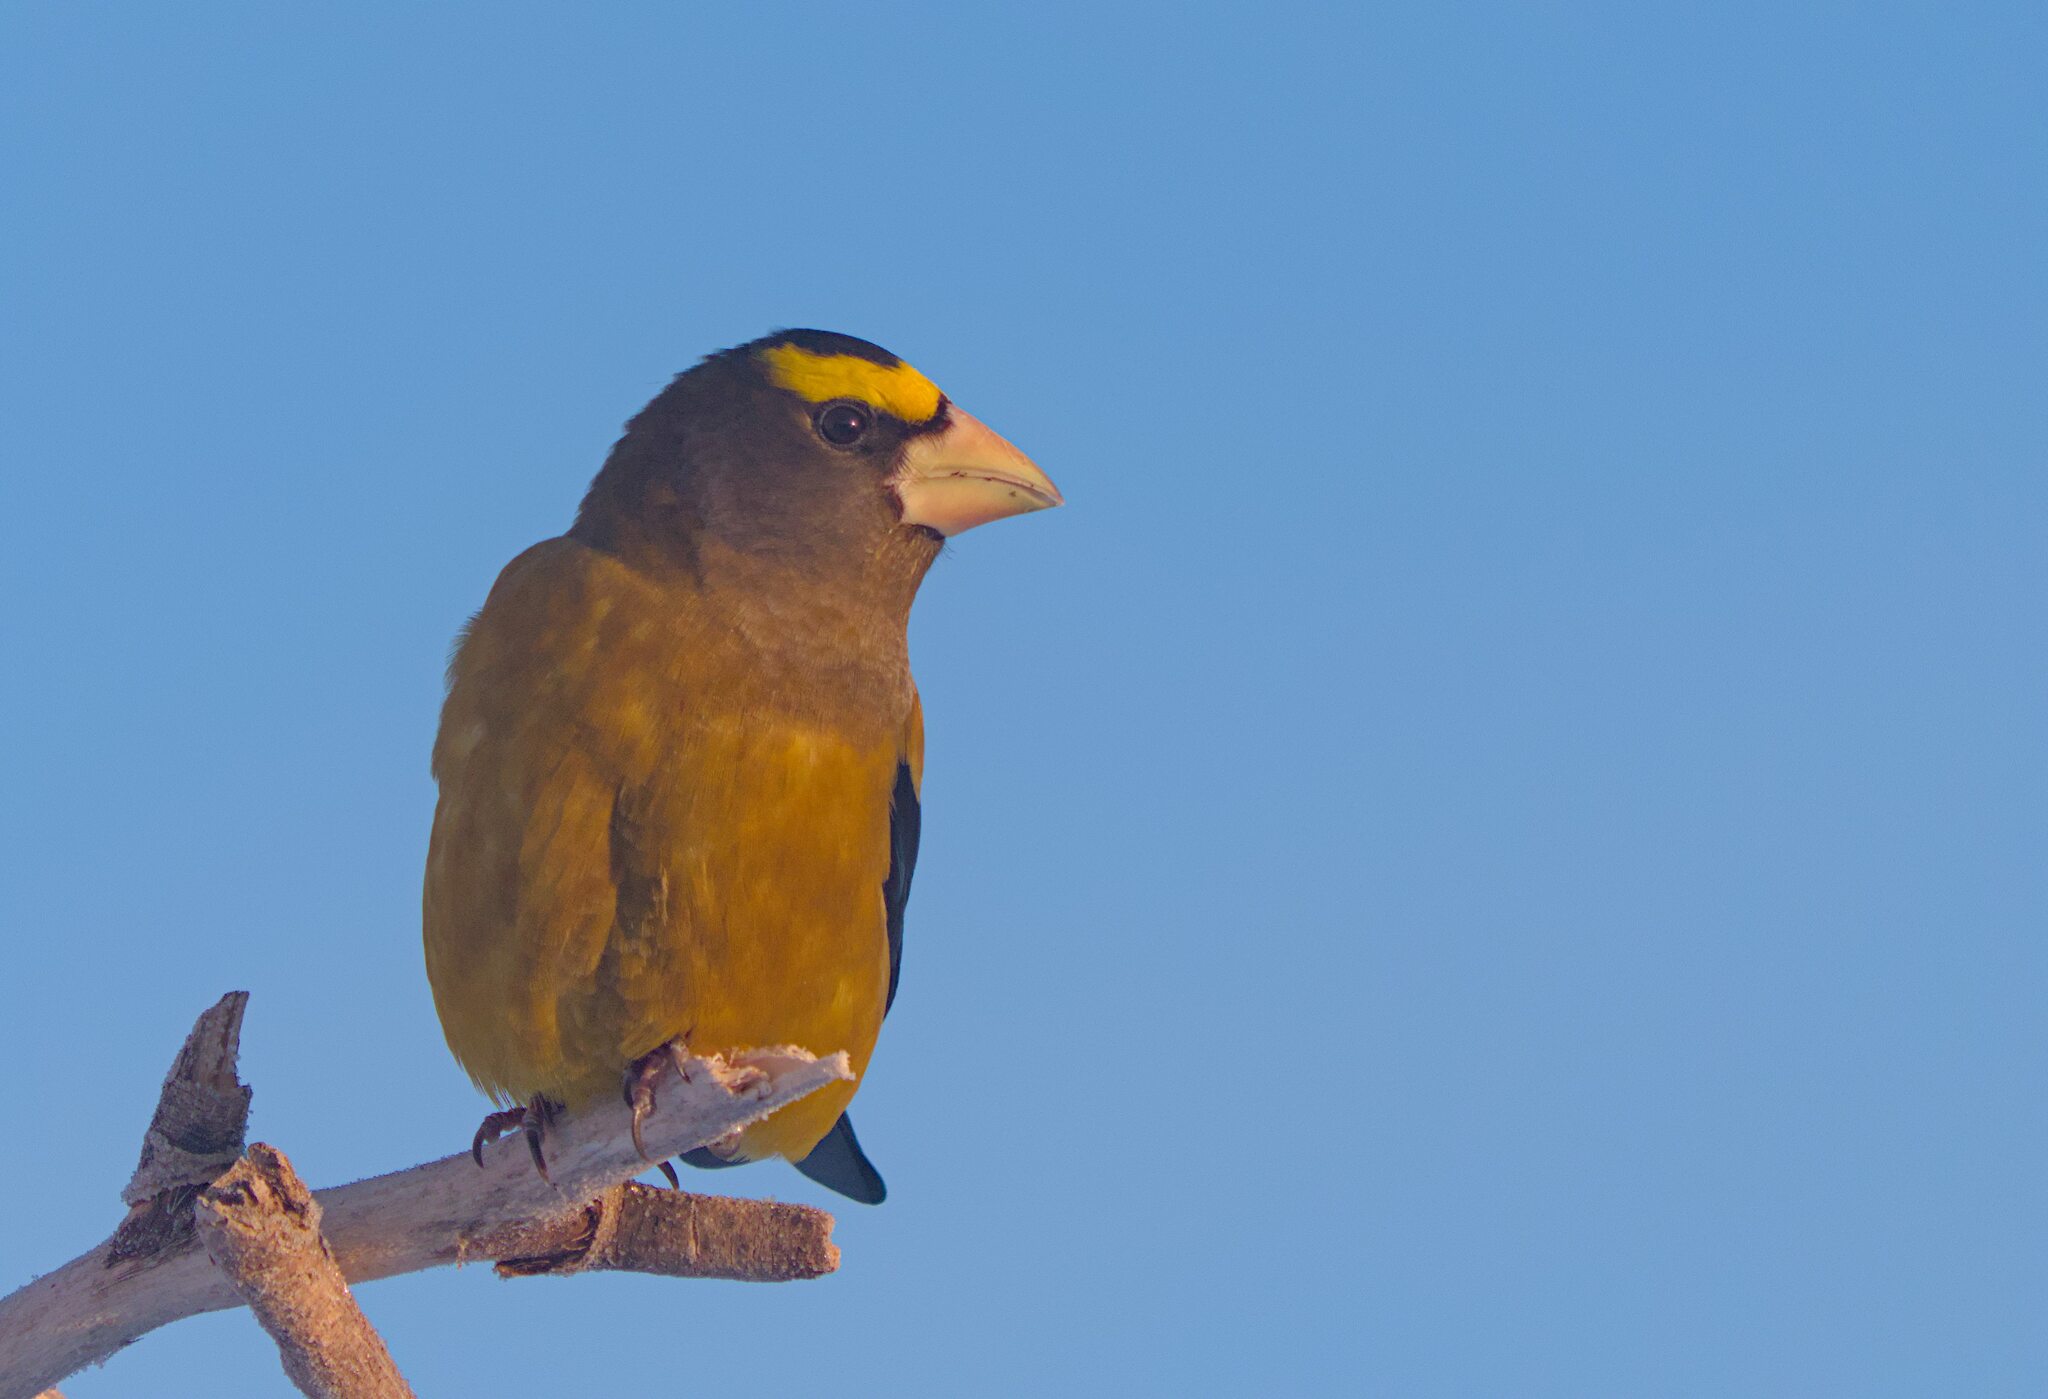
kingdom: Animalia
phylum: Chordata
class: Aves
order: Passeriformes
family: Fringillidae
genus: Hesperiphona
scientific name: Hesperiphona vespertina
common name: Evening grosbeak
